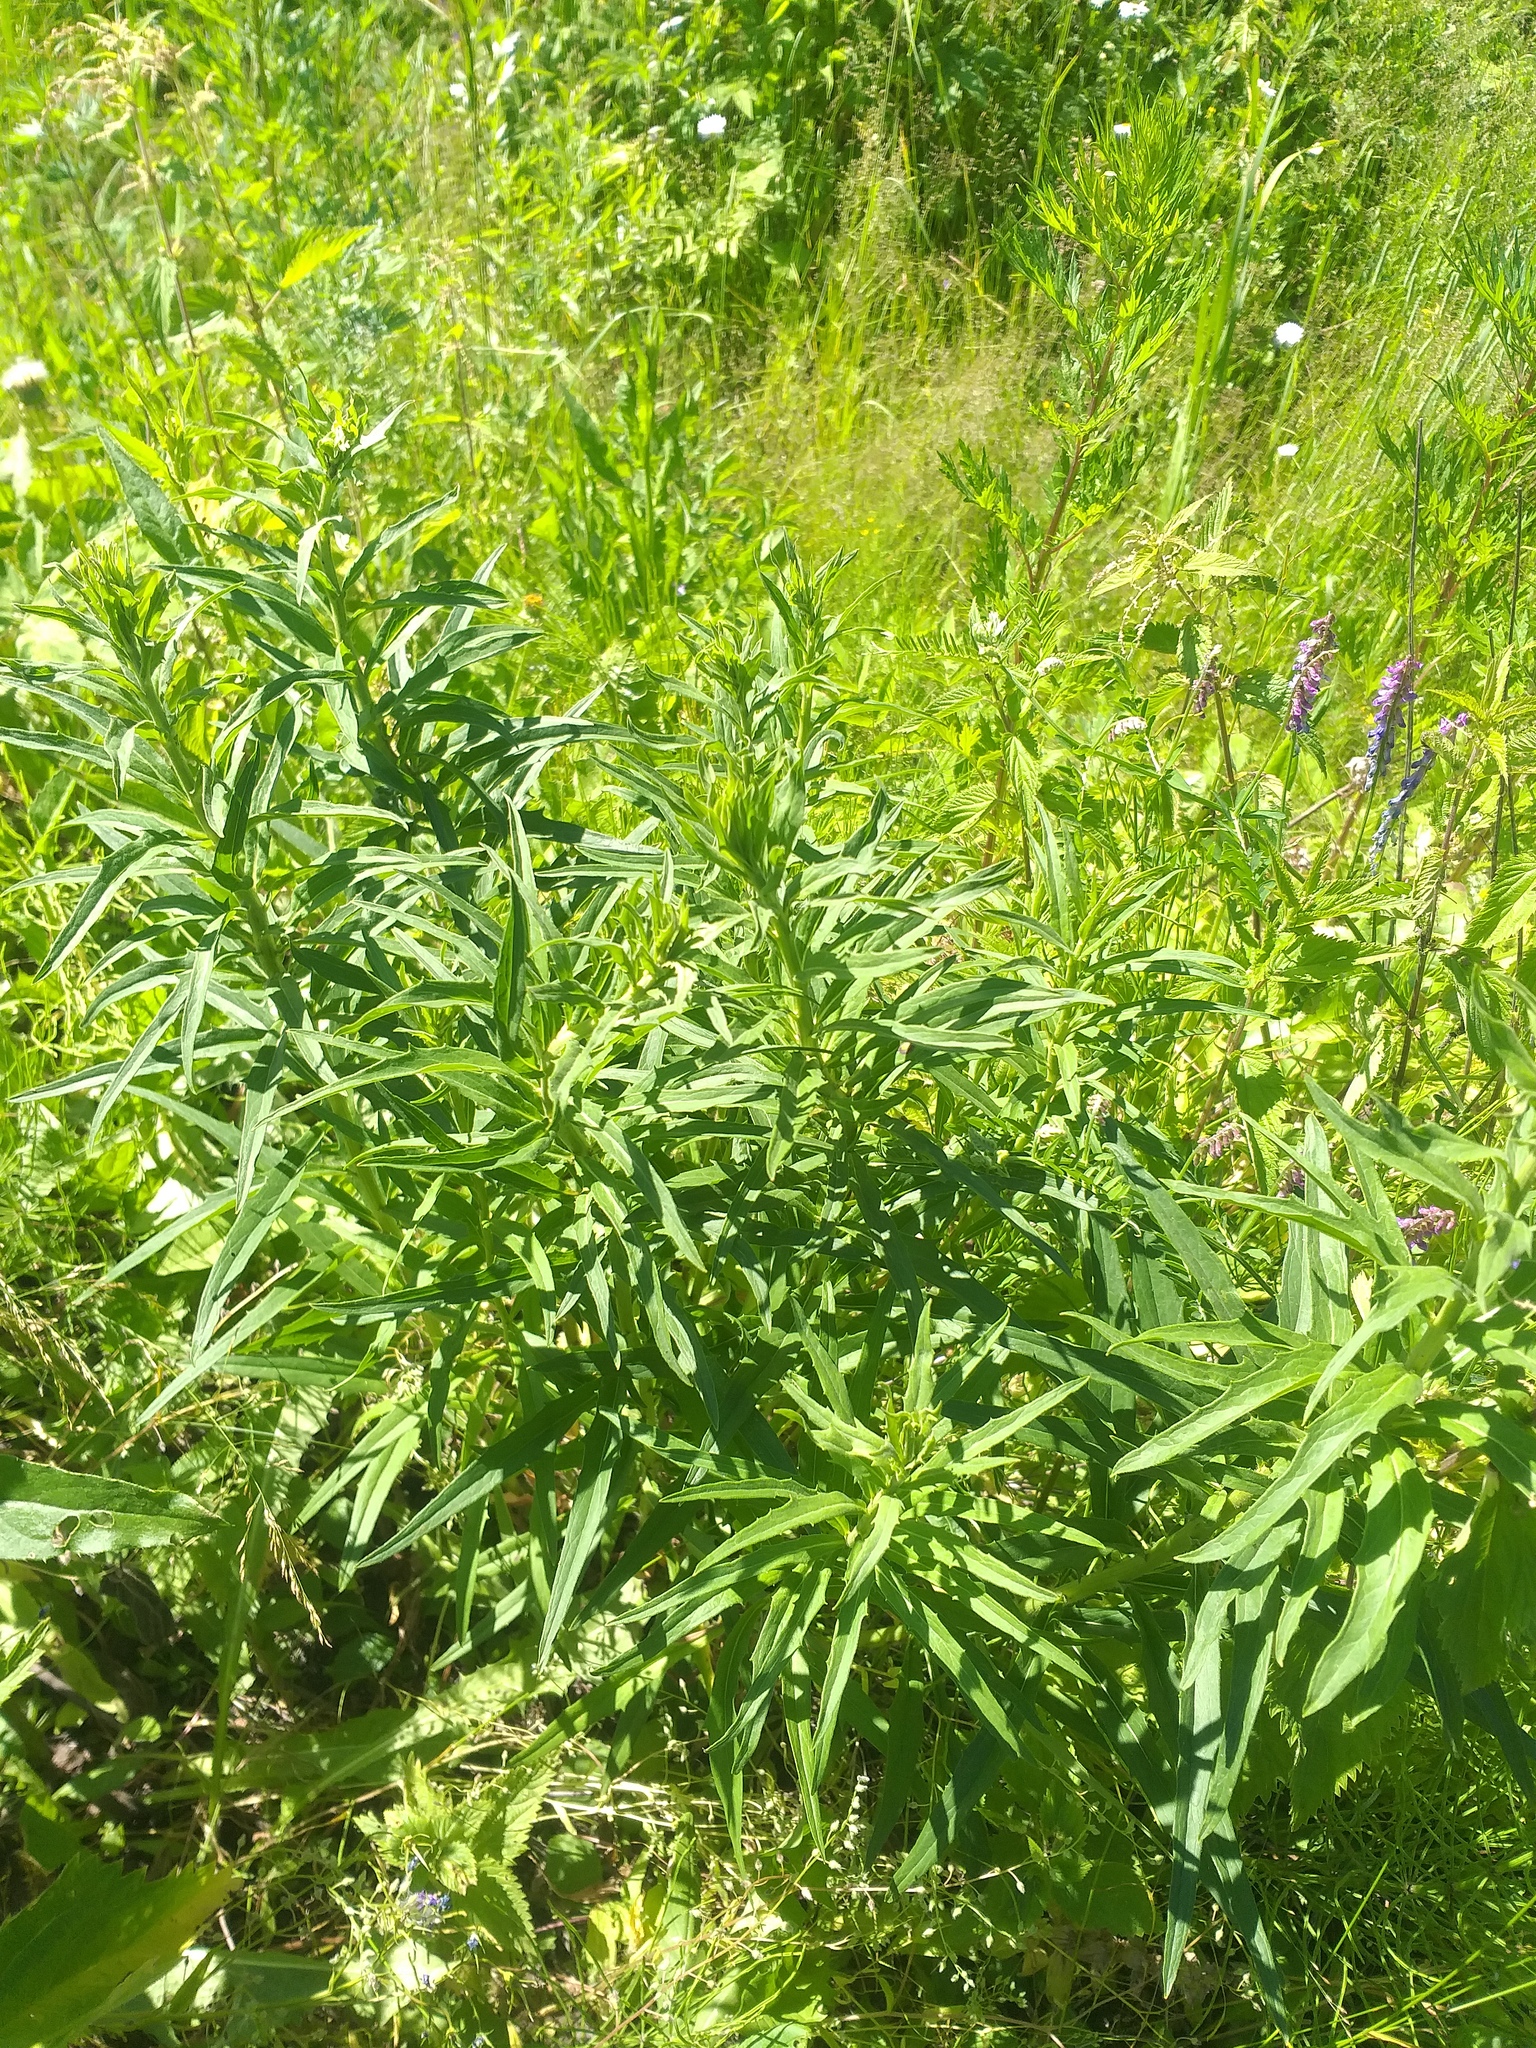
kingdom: Plantae
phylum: Tracheophyta
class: Magnoliopsida
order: Asterales
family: Asteraceae
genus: Hieracium
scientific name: Hieracium umbellatum
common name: Northern hawkweed
